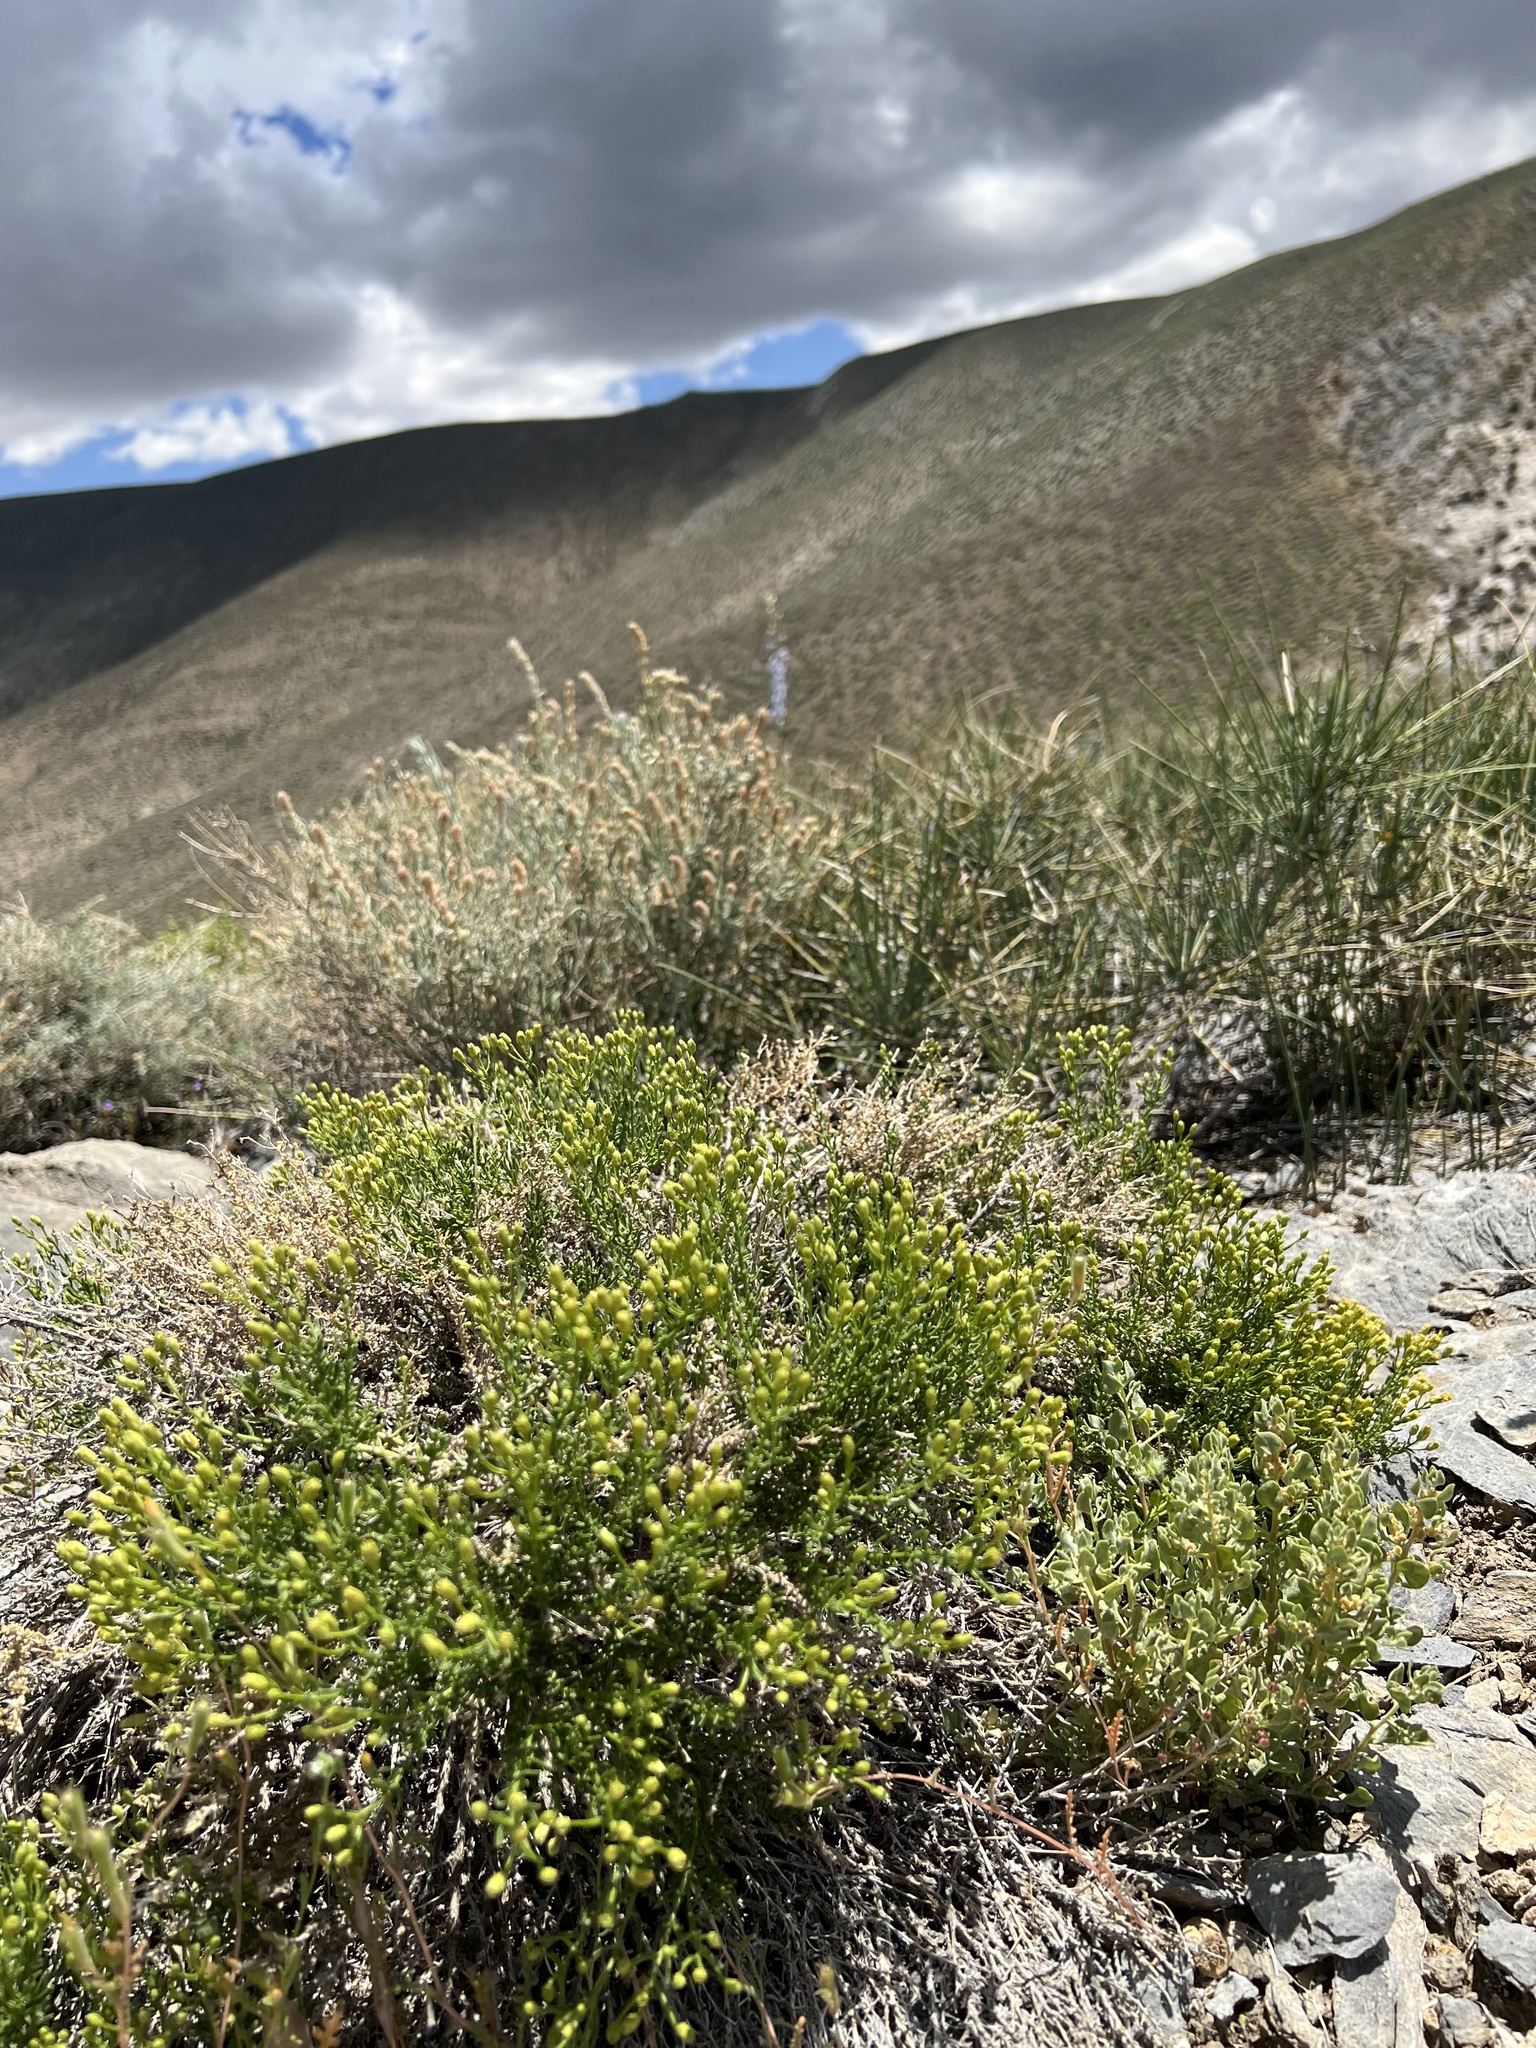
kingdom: Plantae
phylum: Tracheophyta
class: Magnoliopsida
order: Asterales
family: Asteraceae
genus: Ericameria
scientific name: Ericameria cooperi
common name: Cooper's goldenbush
